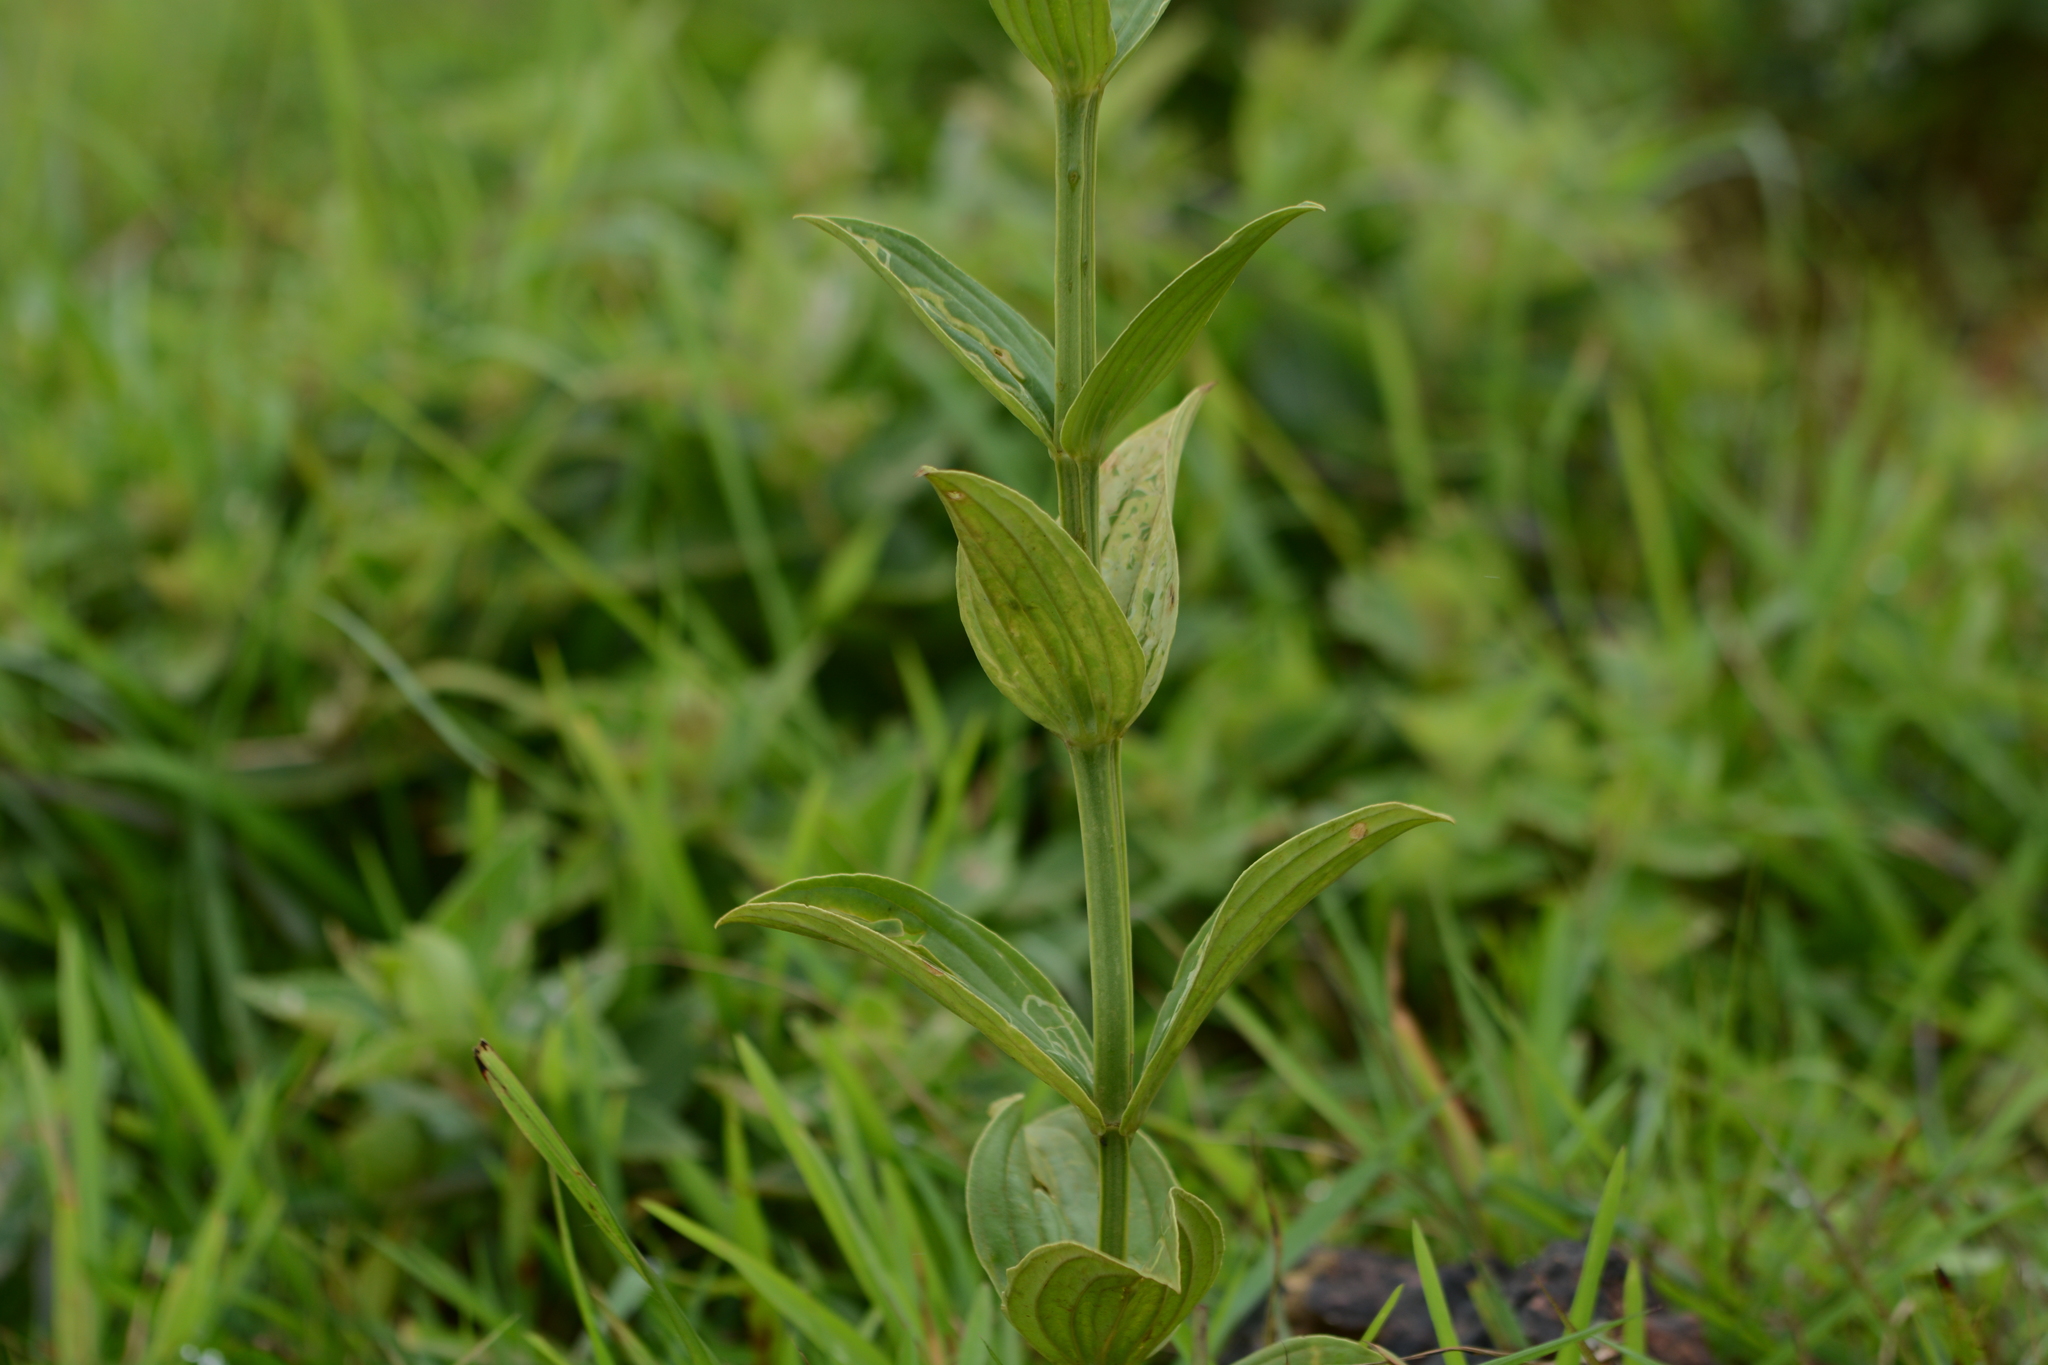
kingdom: Plantae
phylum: Tracheophyta
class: Magnoliopsida
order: Gentianales
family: Gentianaceae
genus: Exacum
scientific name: Exacum tetragonum
